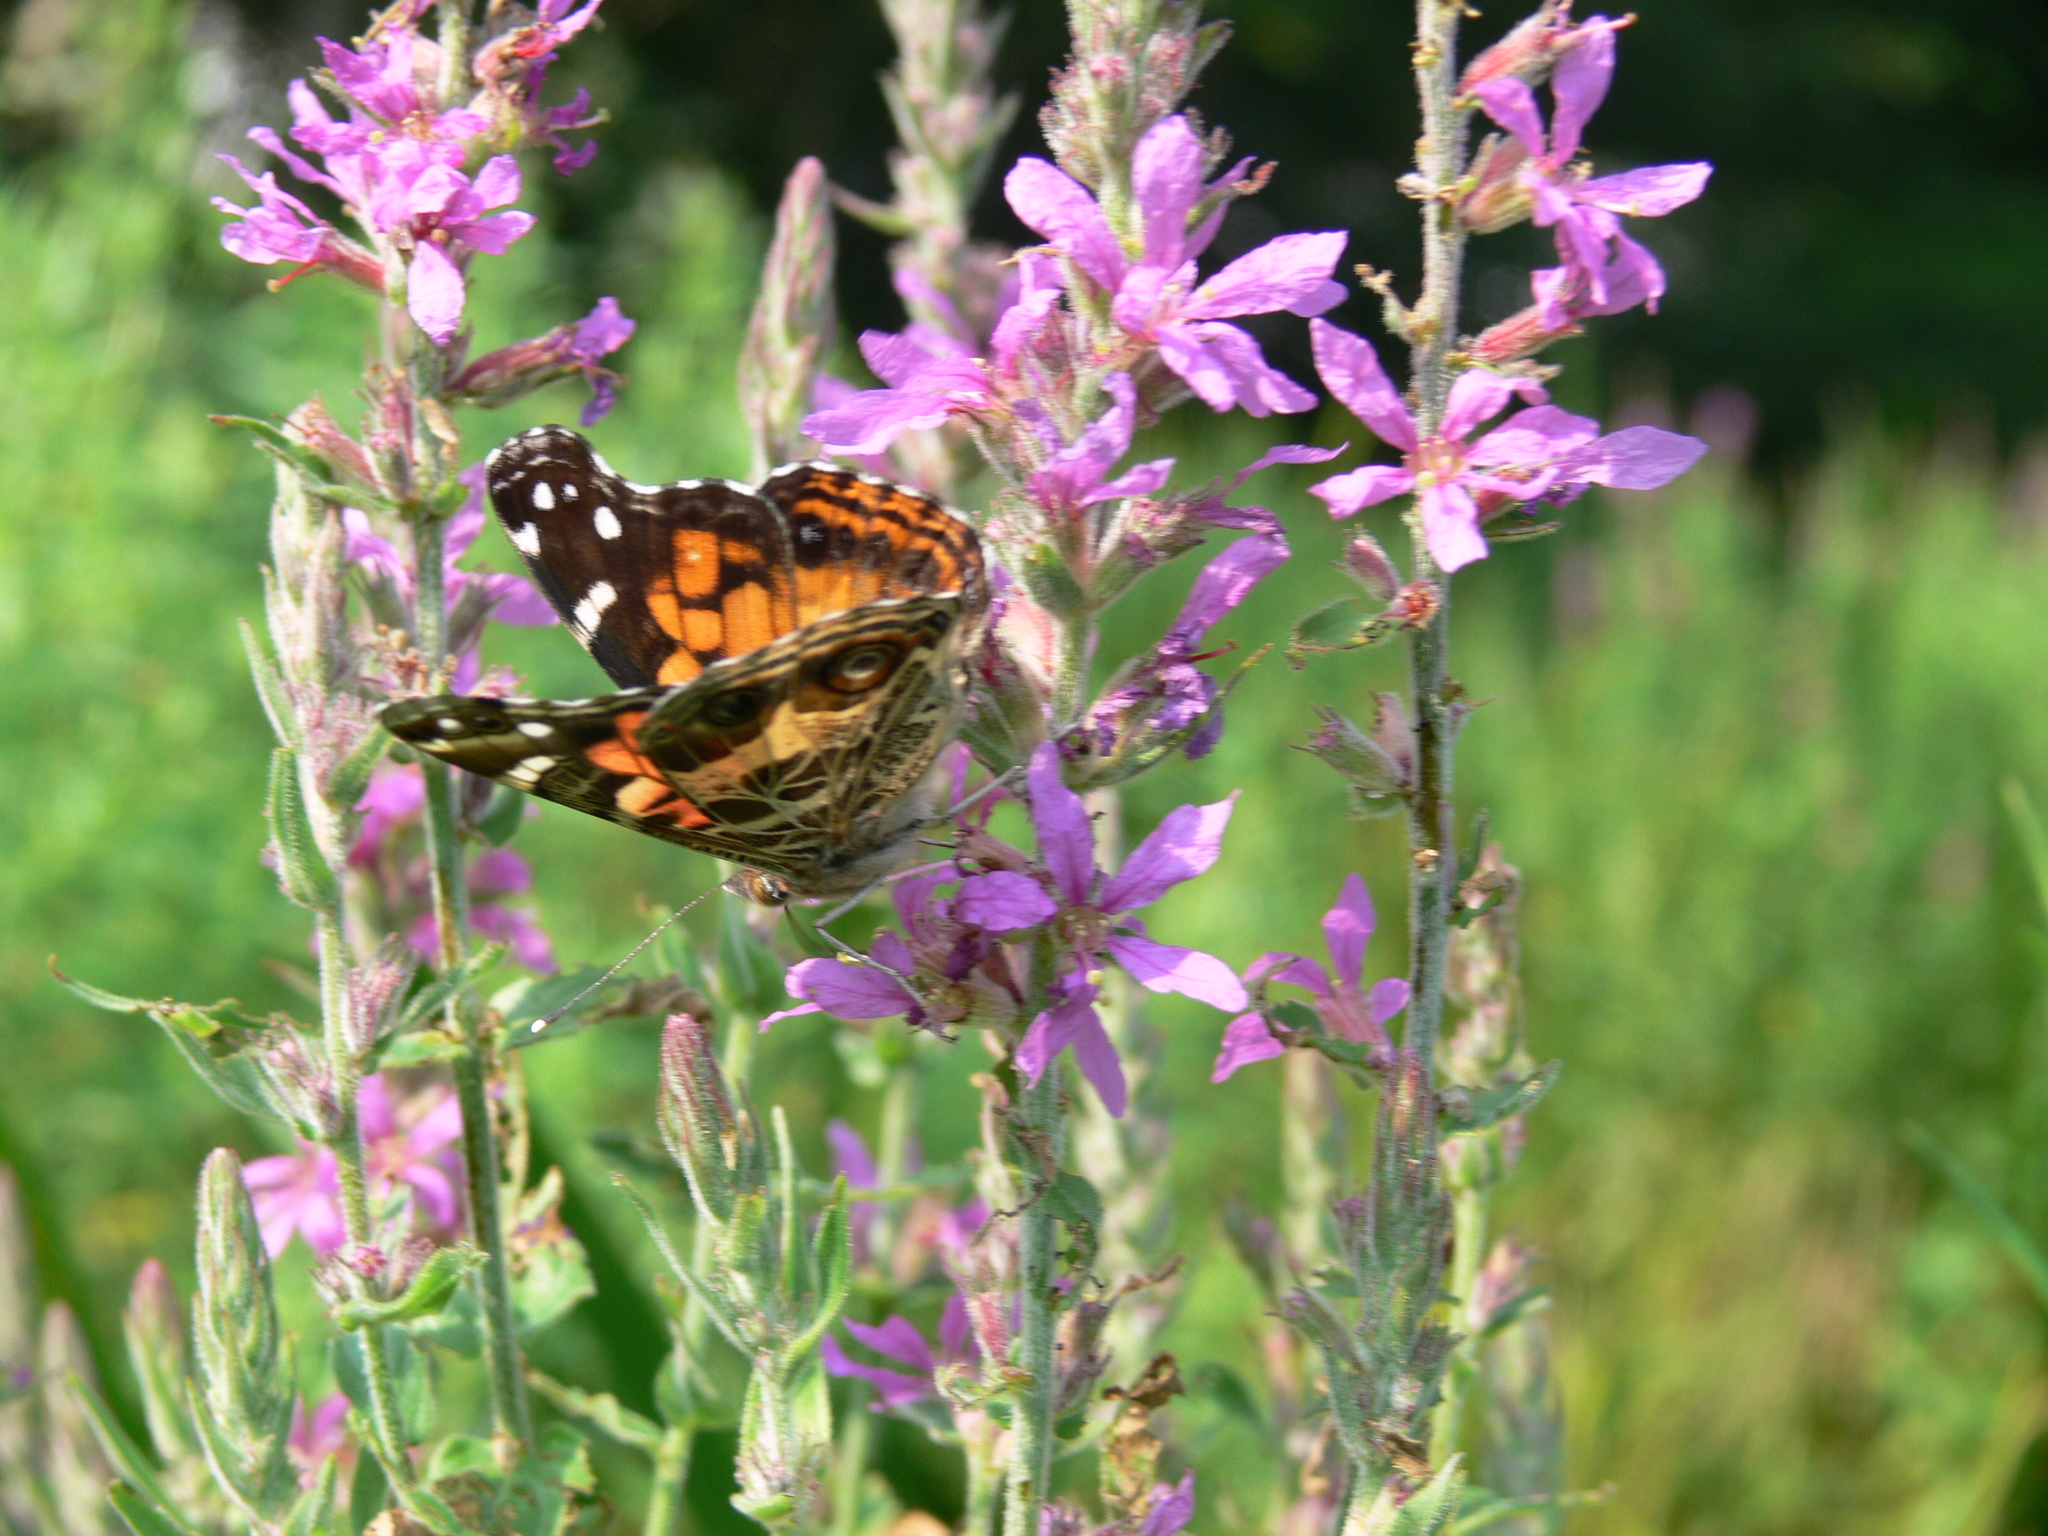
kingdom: Animalia
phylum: Arthropoda
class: Insecta
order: Lepidoptera
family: Nymphalidae
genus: Vanessa
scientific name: Vanessa virginiensis
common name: American lady
